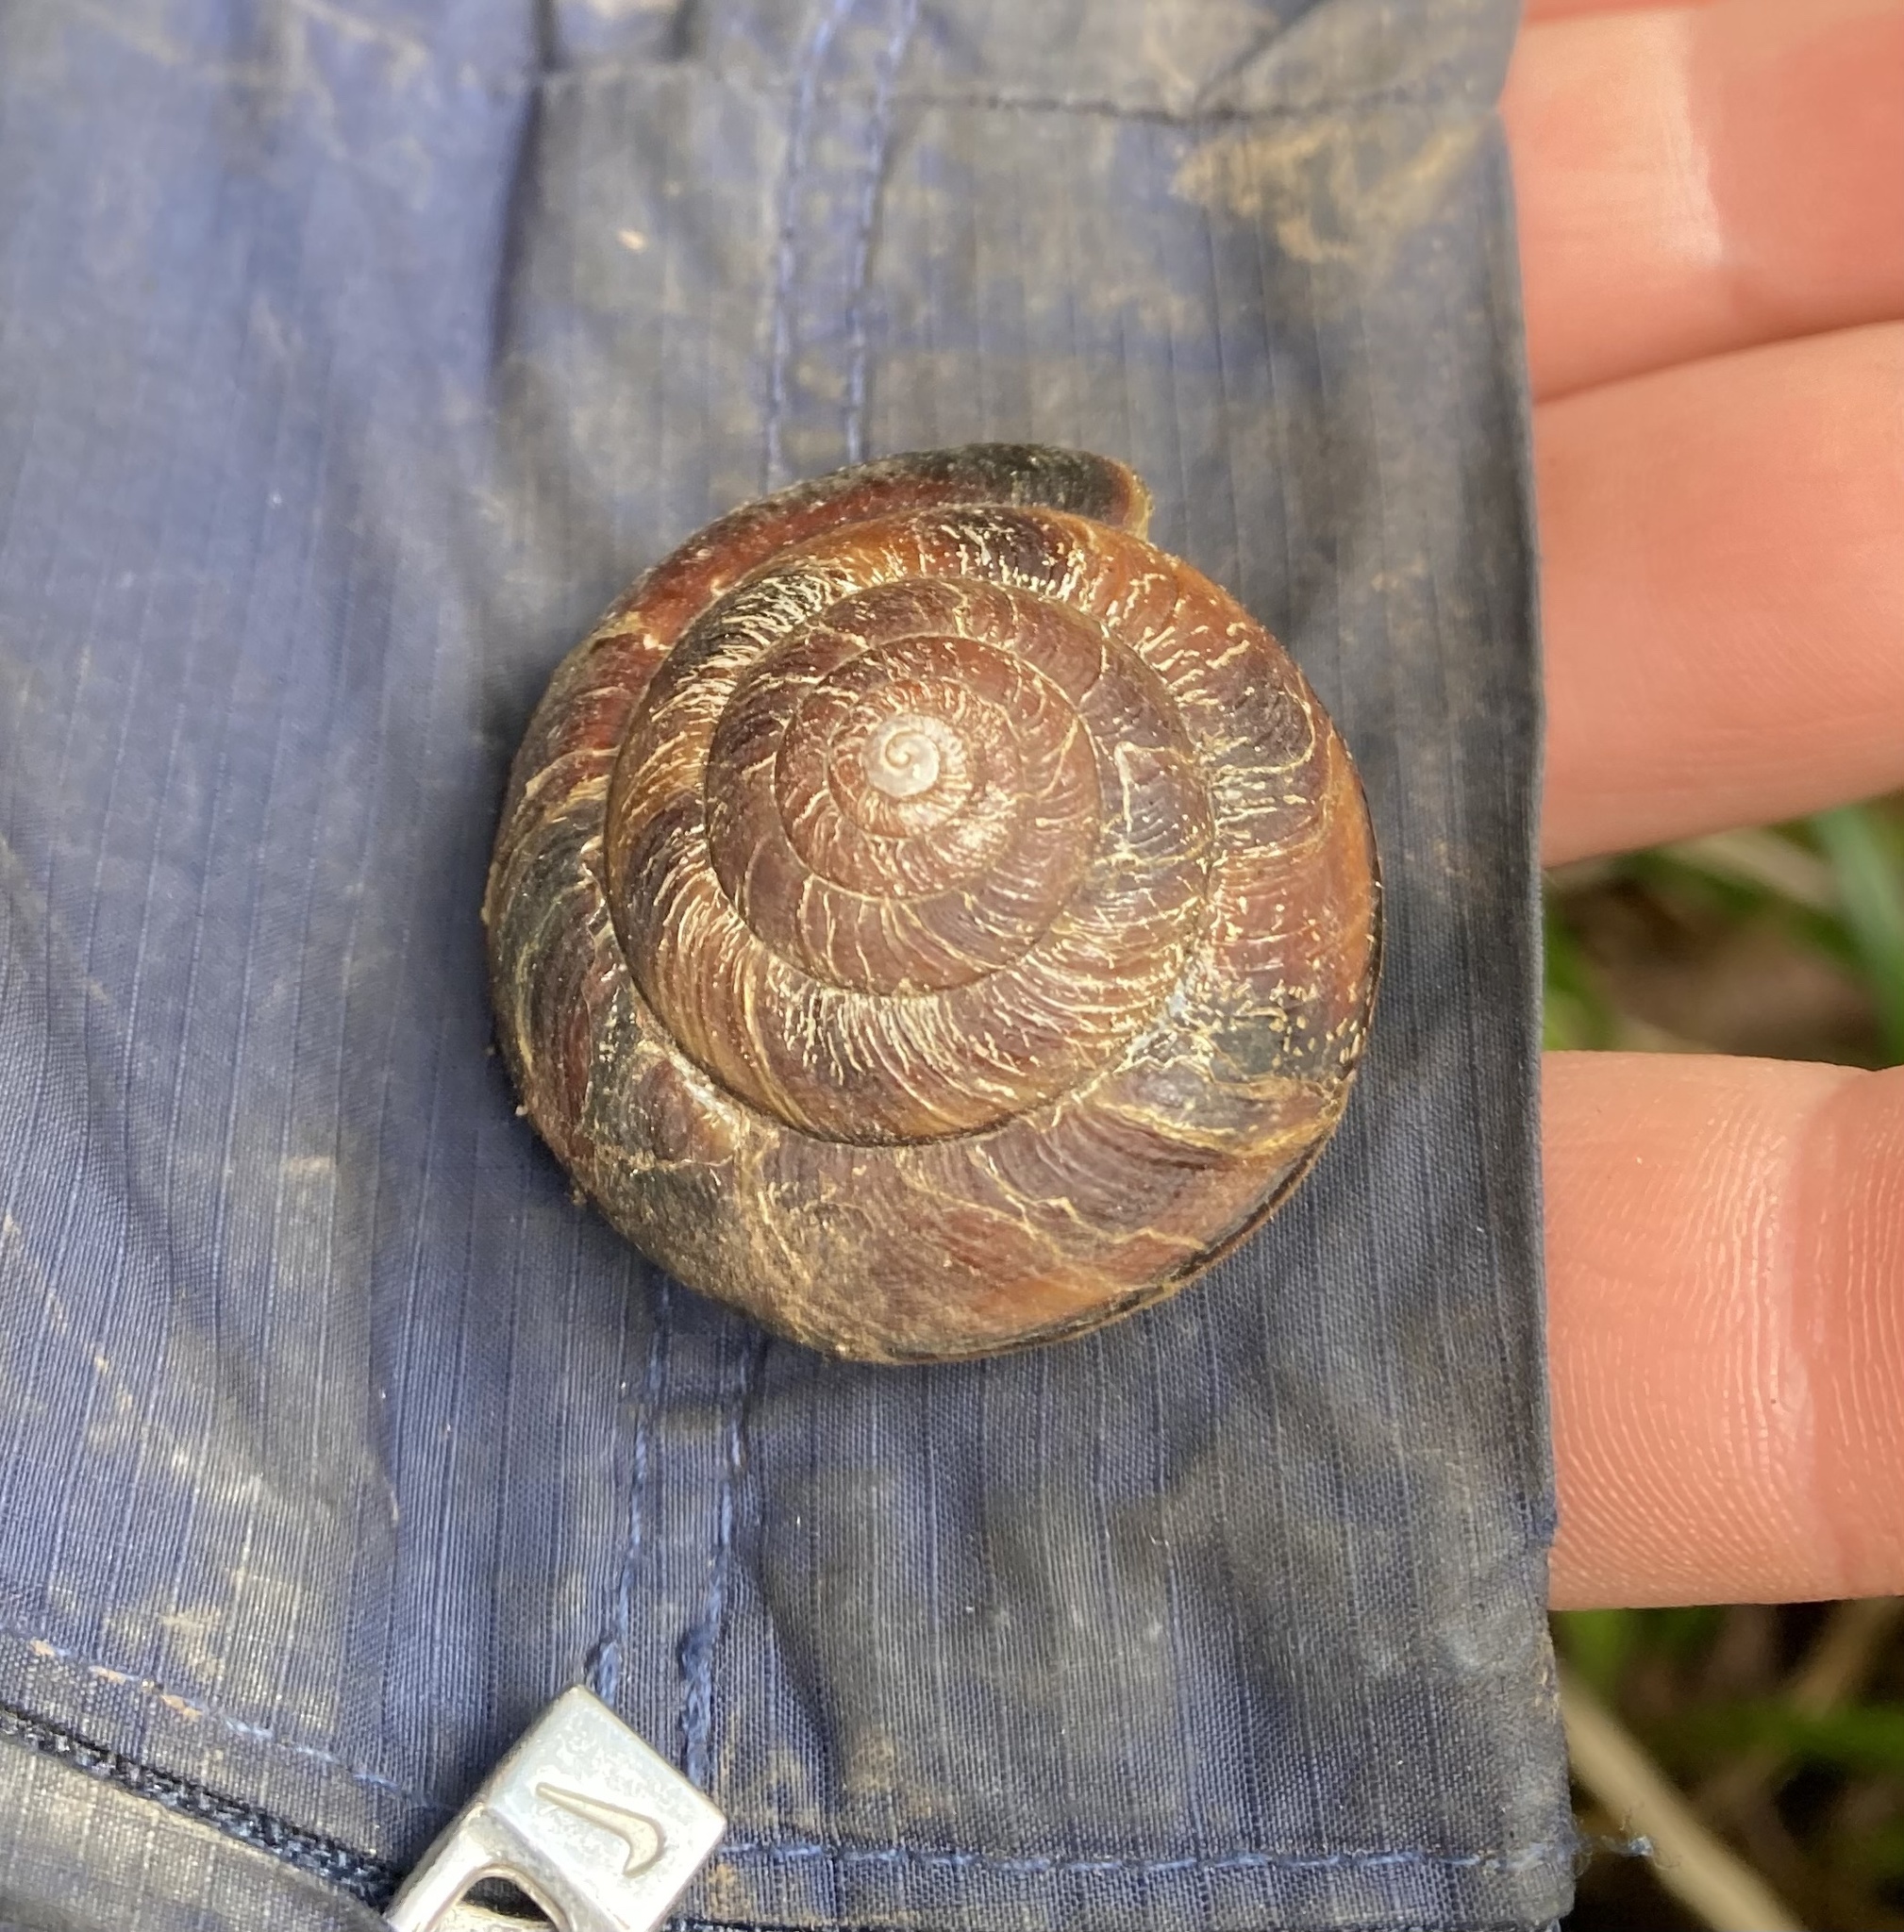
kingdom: Animalia
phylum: Mollusca
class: Gastropoda
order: Stylommatophora
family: Xanthonychidae
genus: Monadenia
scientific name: Monadenia fidelis
